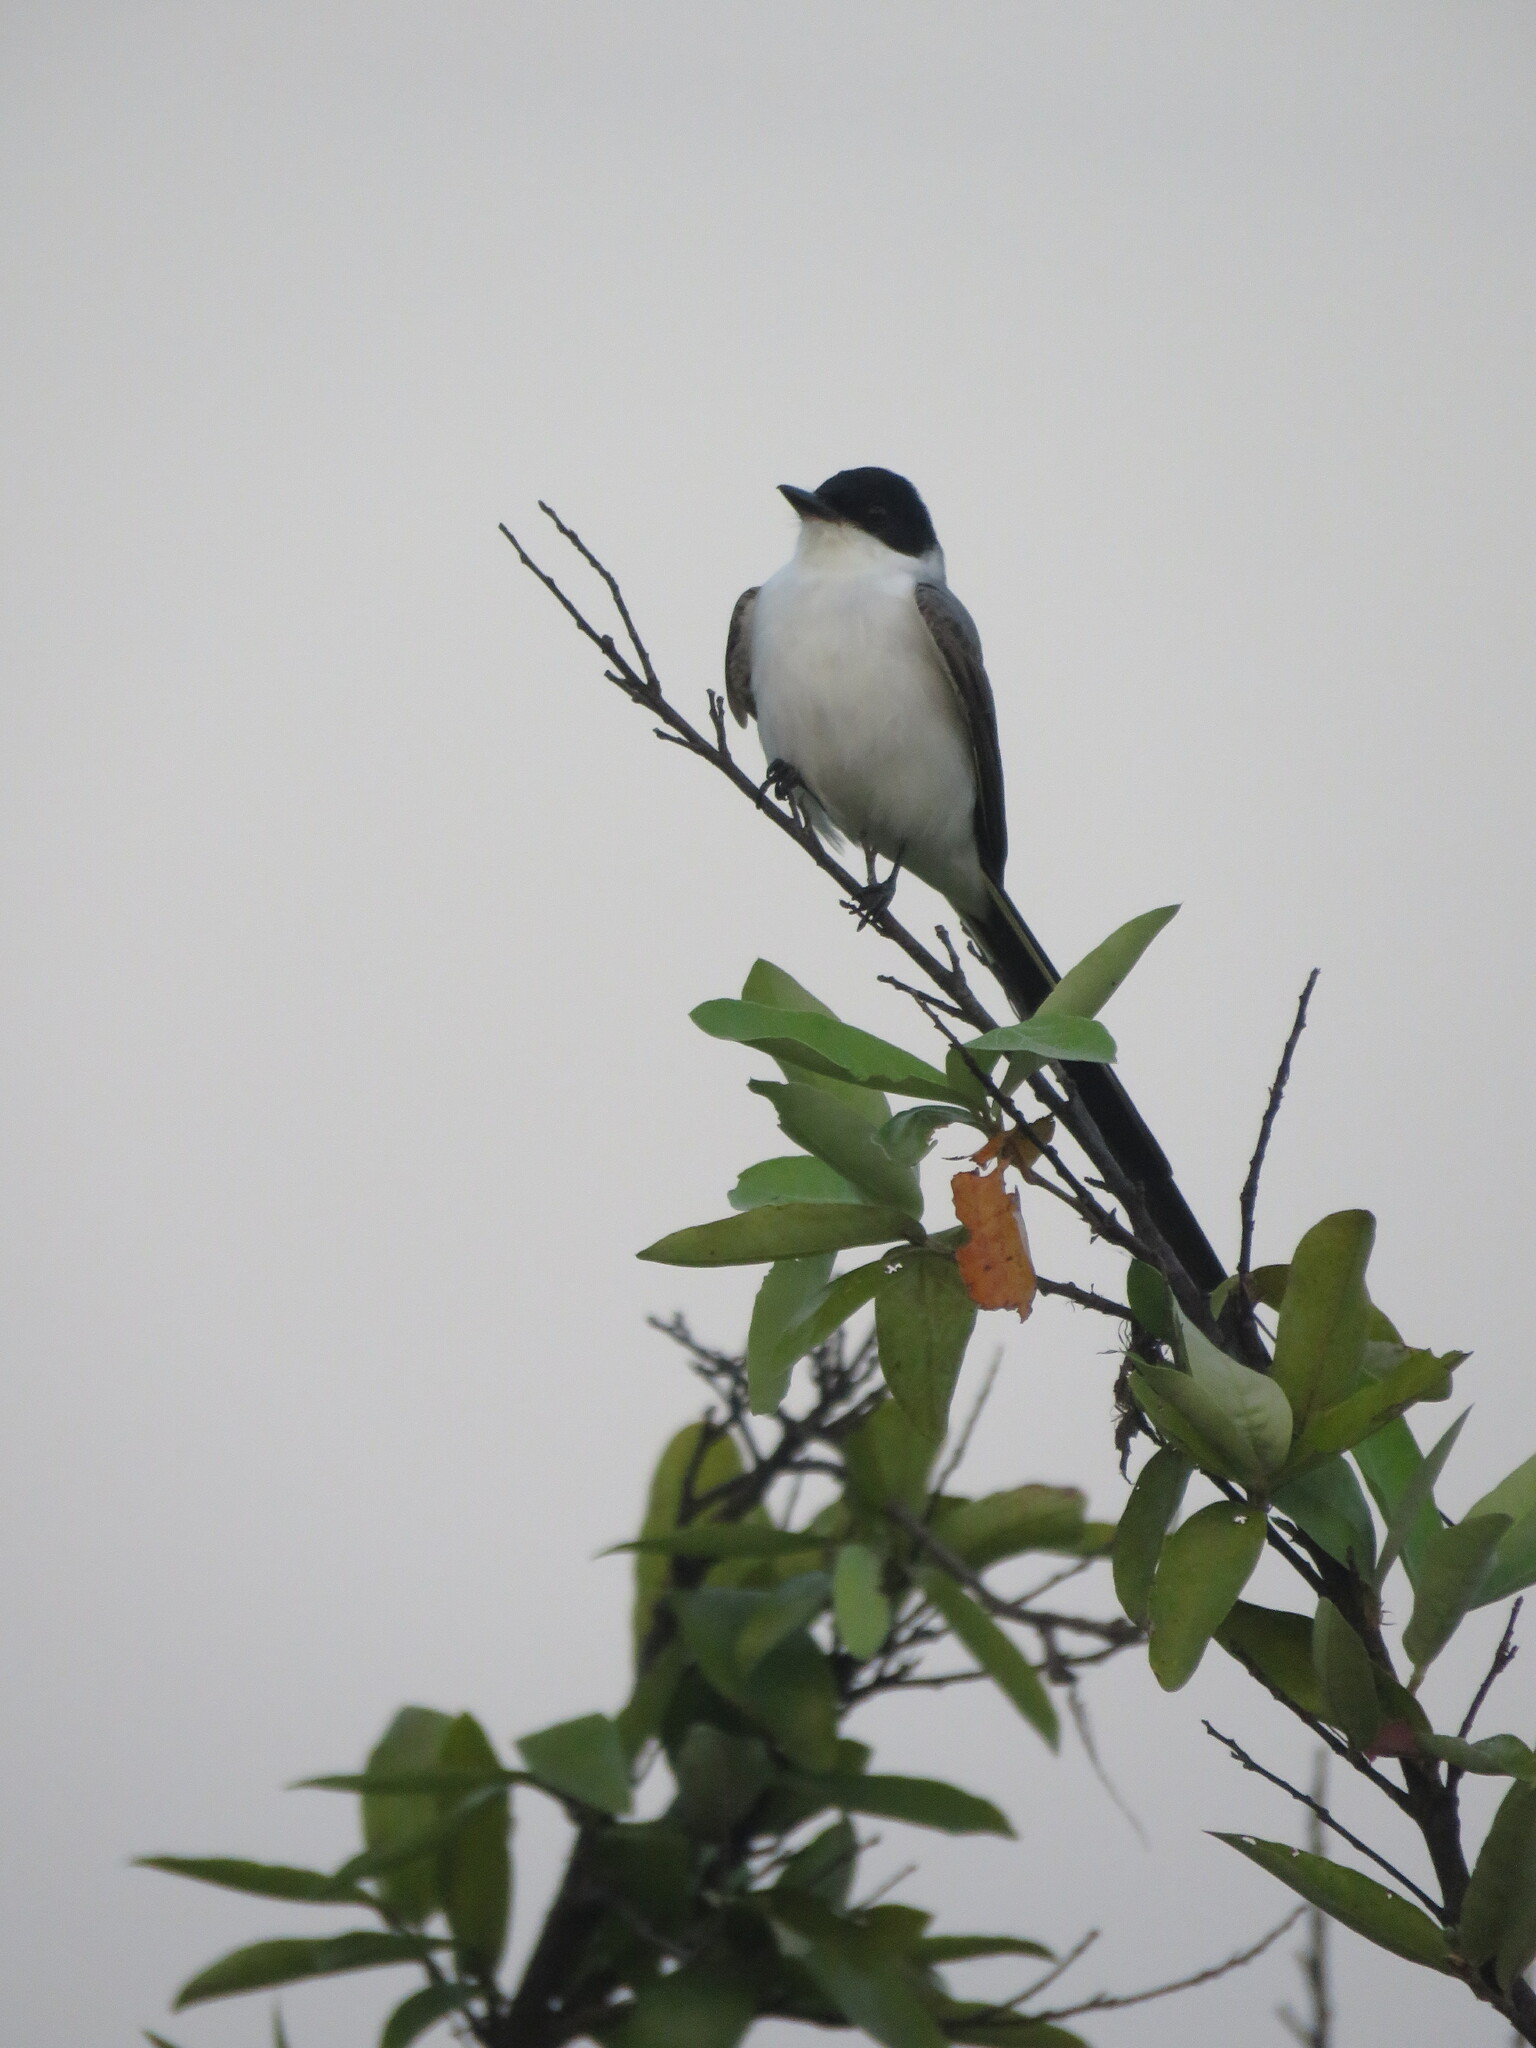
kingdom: Animalia
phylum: Chordata
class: Aves
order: Passeriformes
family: Tyrannidae
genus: Tyrannus
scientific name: Tyrannus savana
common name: Fork-tailed flycatcher
